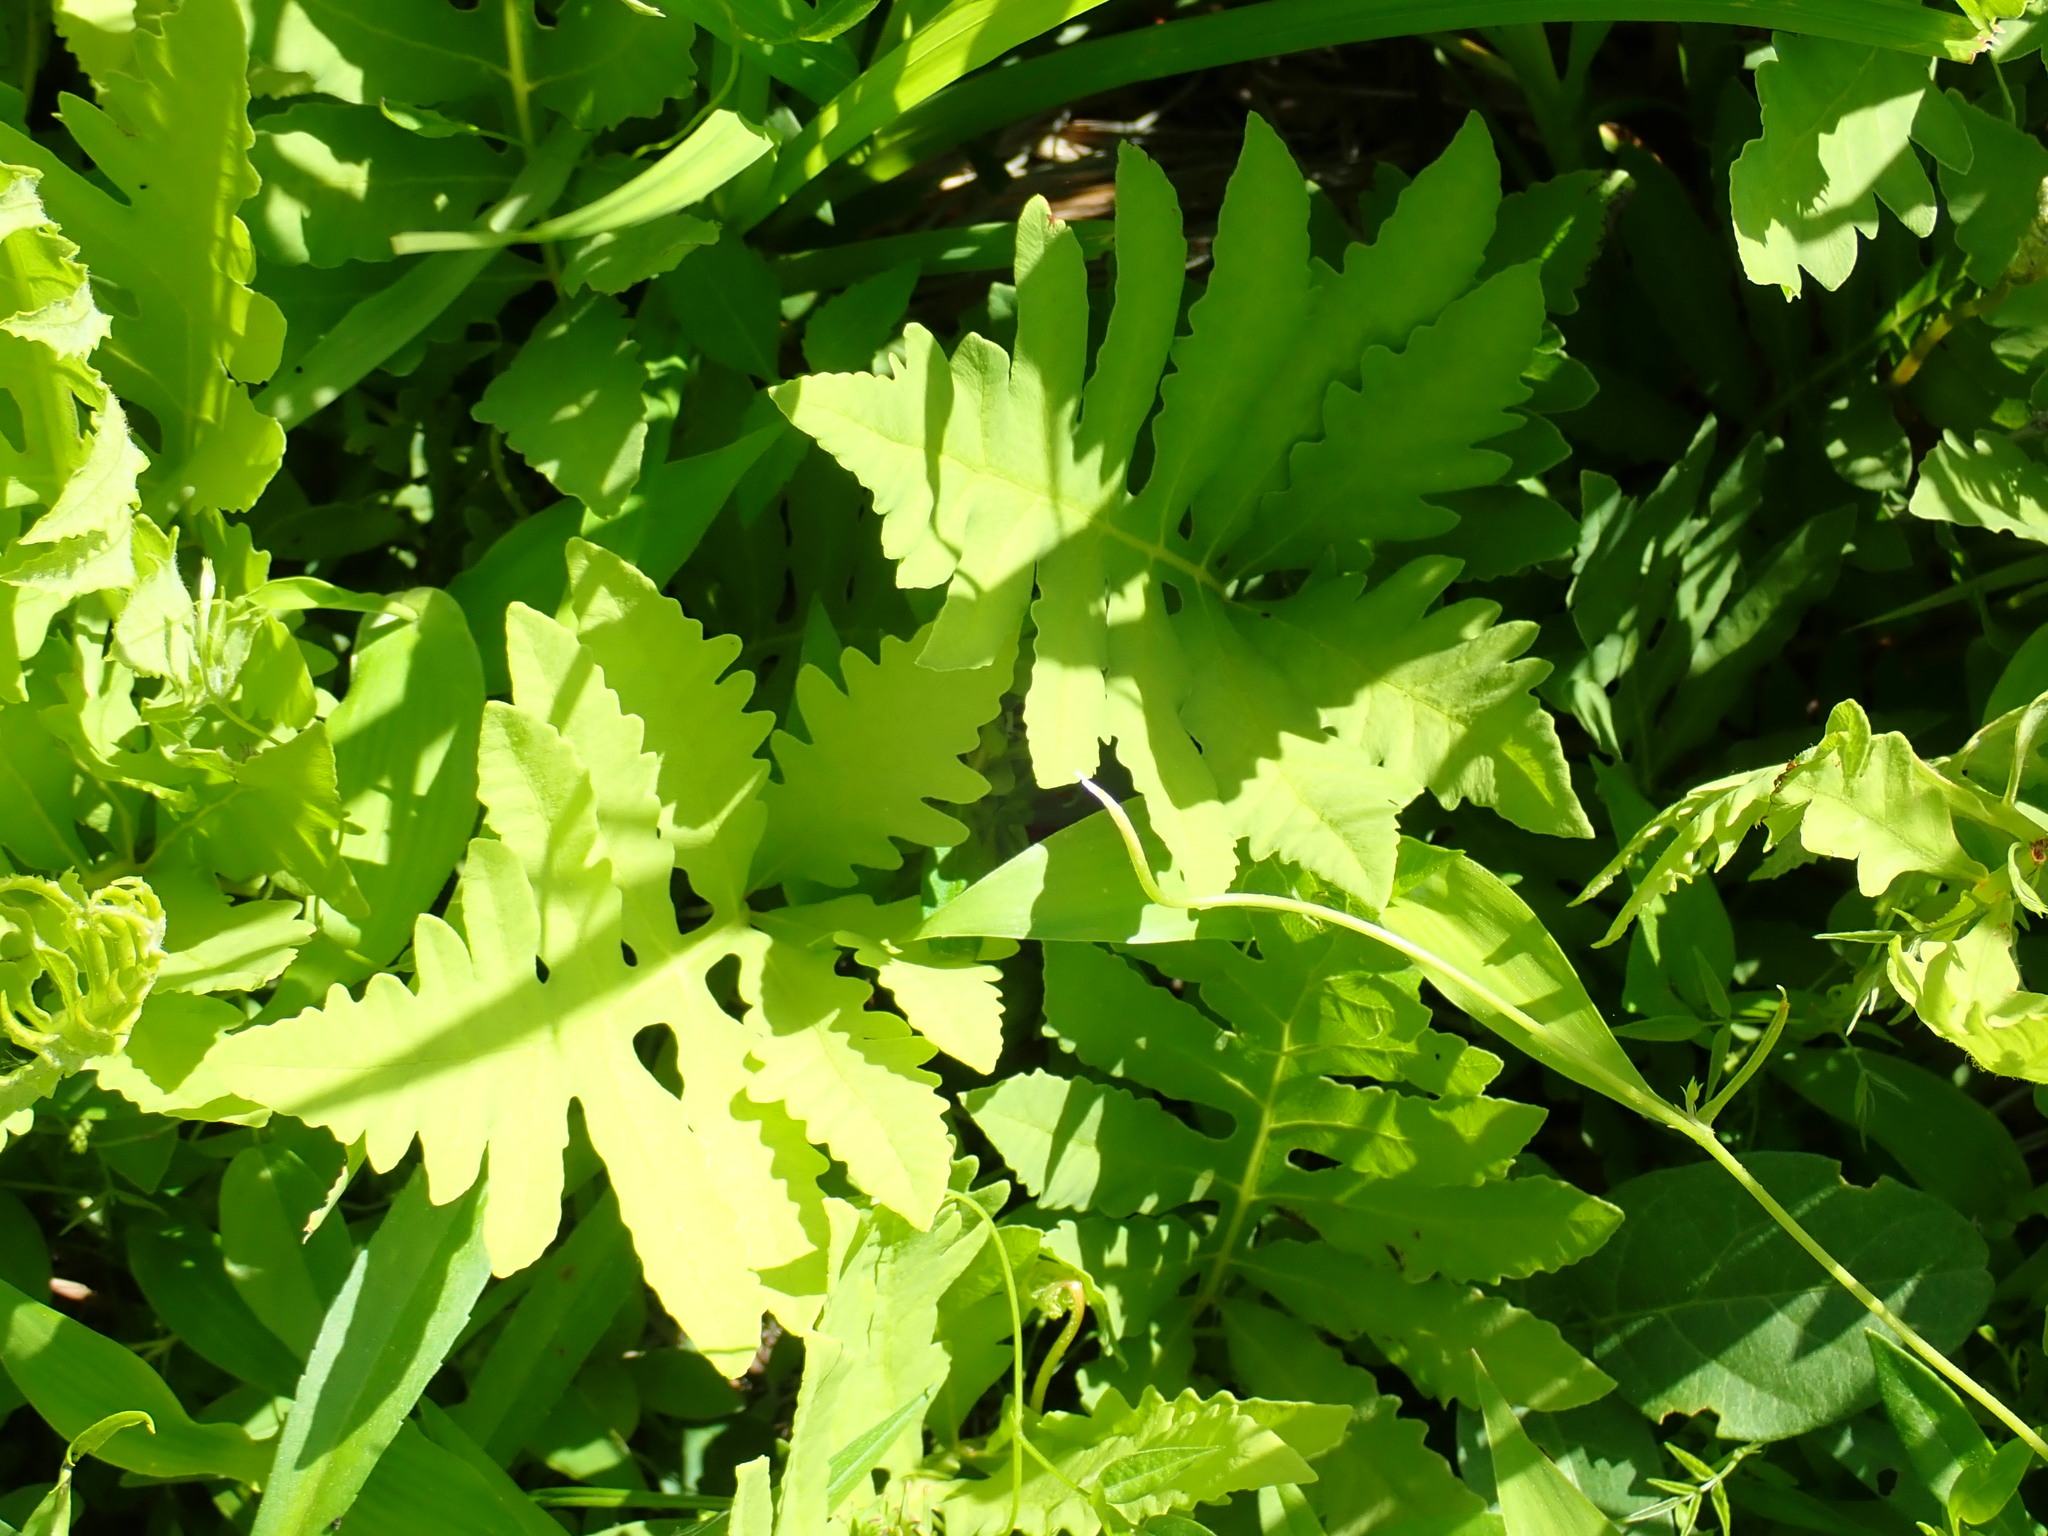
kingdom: Plantae
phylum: Tracheophyta
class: Polypodiopsida
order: Polypodiales
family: Onocleaceae
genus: Onoclea
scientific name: Onoclea sensibilis
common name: Sensitive fern
